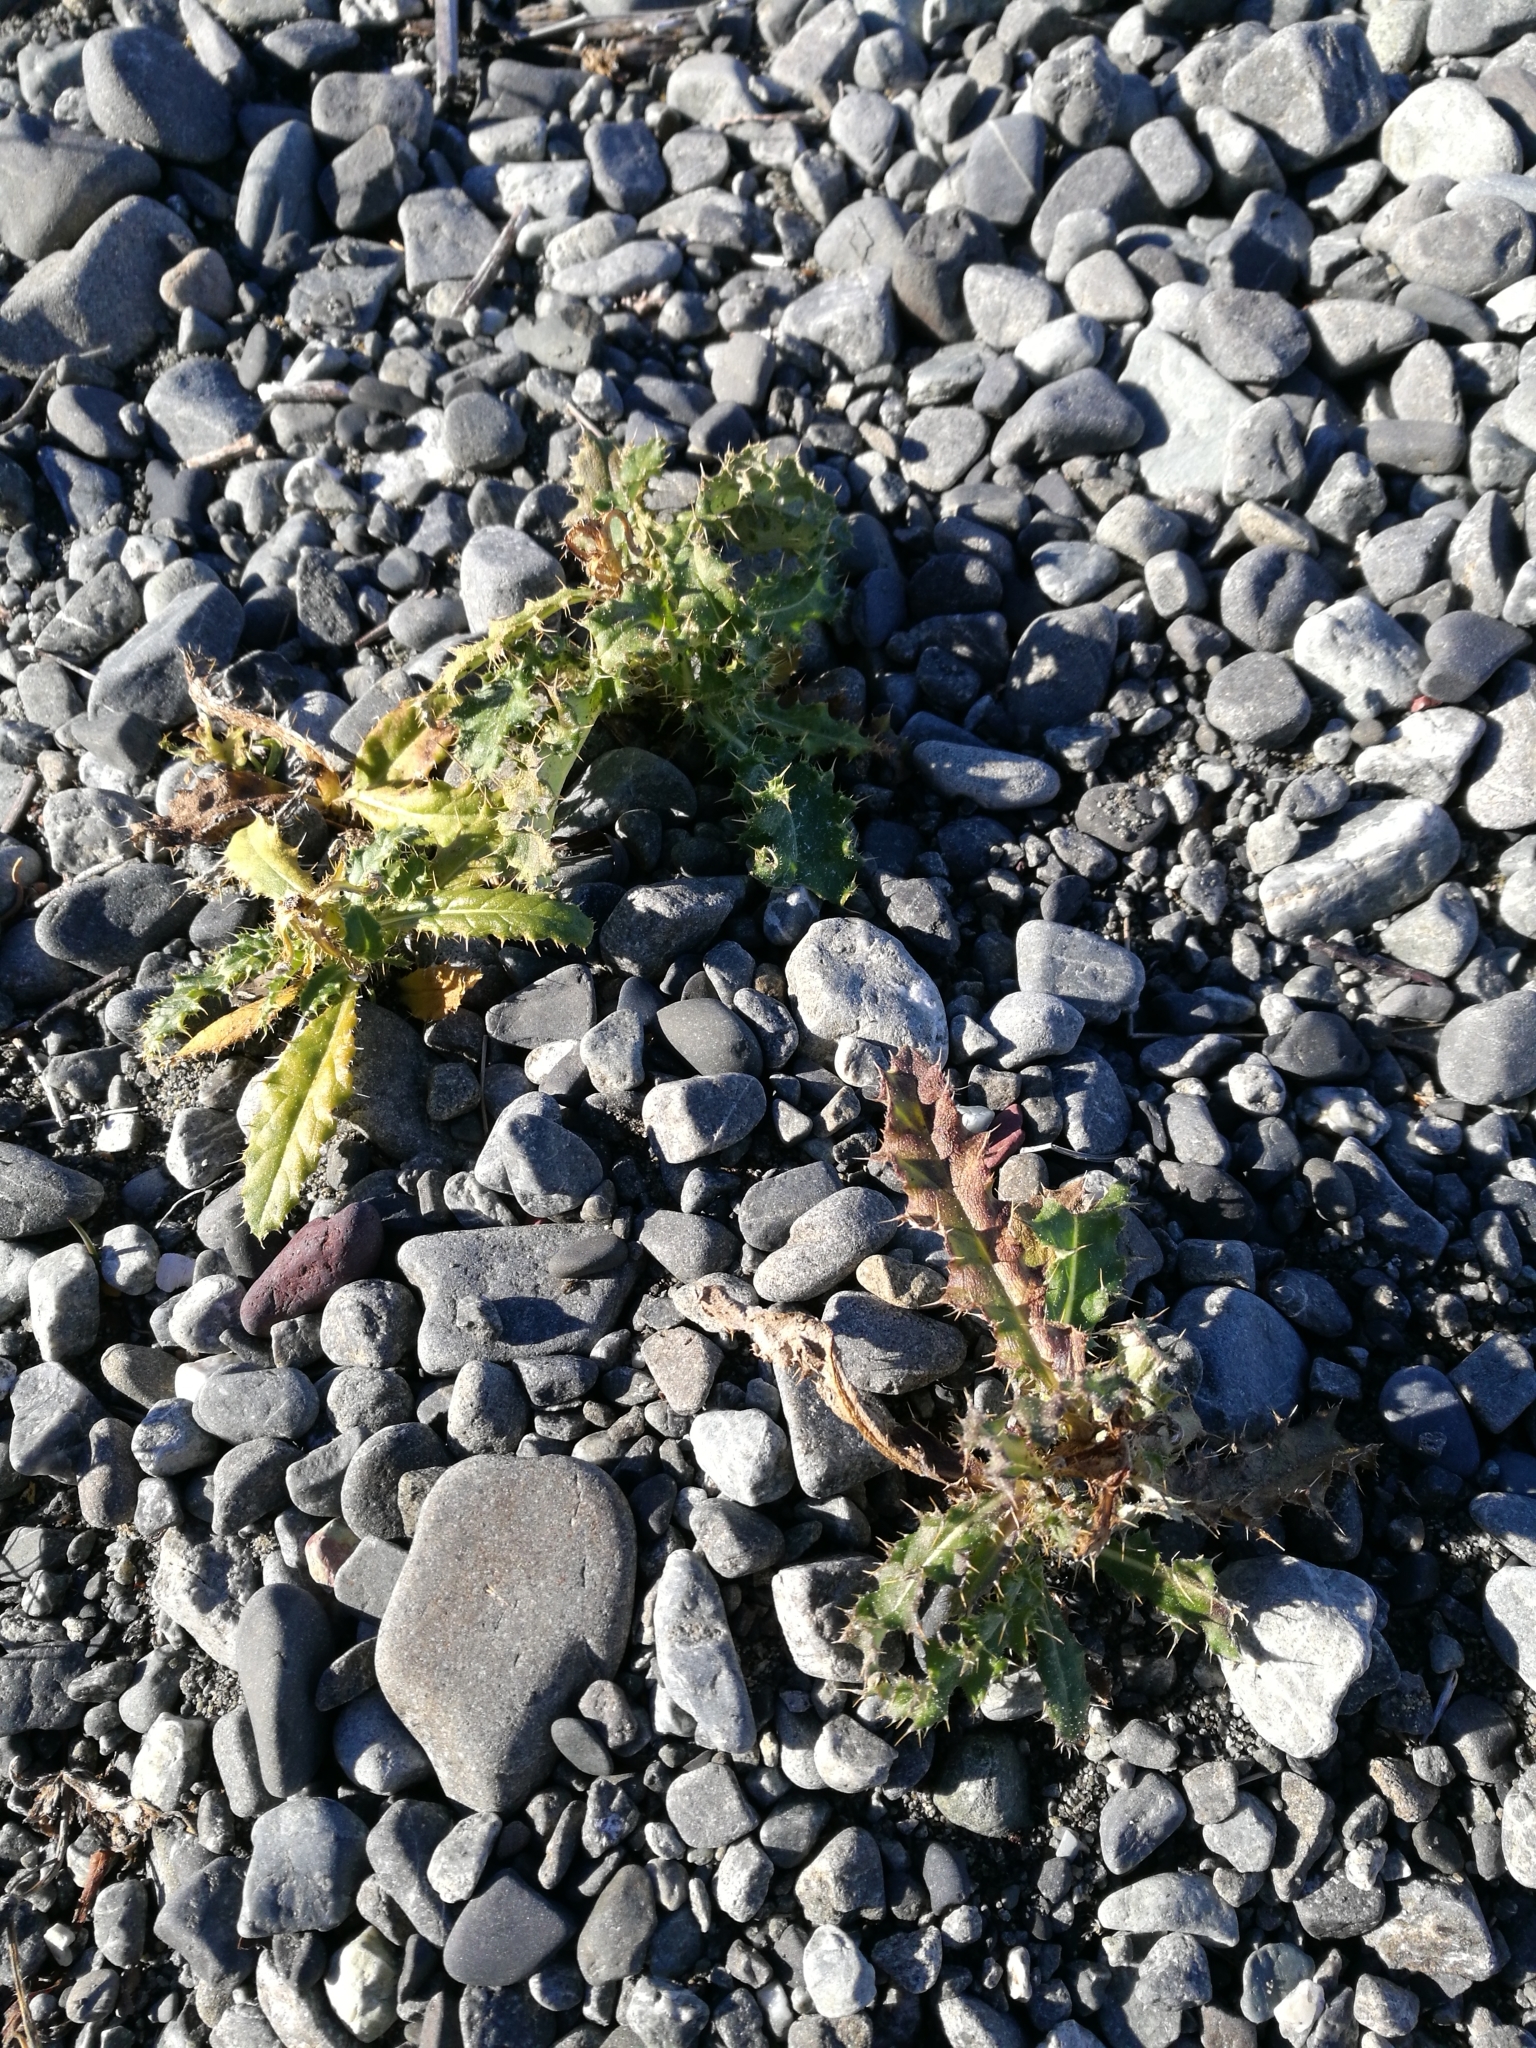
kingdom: Plantae
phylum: Tracheophyta
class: Magnoliopsida
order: Asterales
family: Asteraceae
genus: Cirsium
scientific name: Cirsium arvense
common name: Creeping thistle
